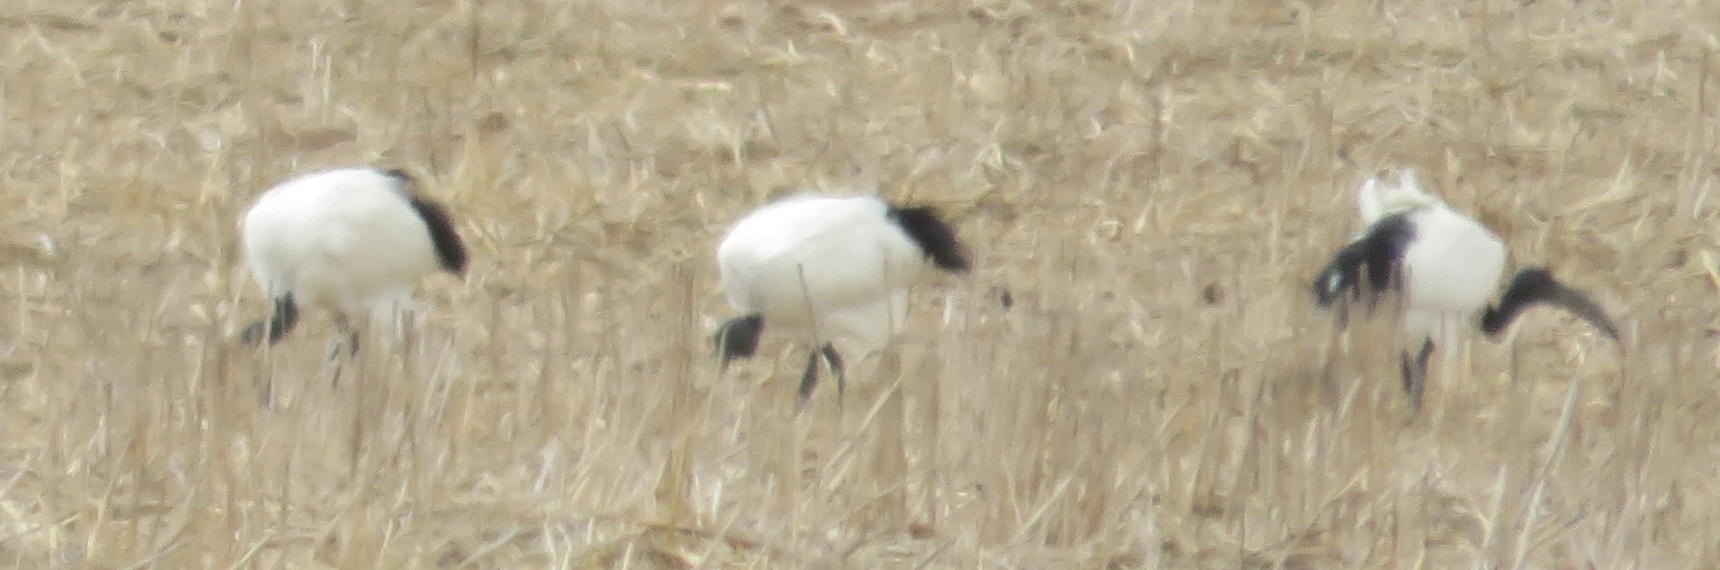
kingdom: Animalia
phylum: Chordata
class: Aves
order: Pelecaniformes
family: Threskiornithidae
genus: Threskiornis
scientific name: Threskiornis aethiopicus
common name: Sacred ibis
